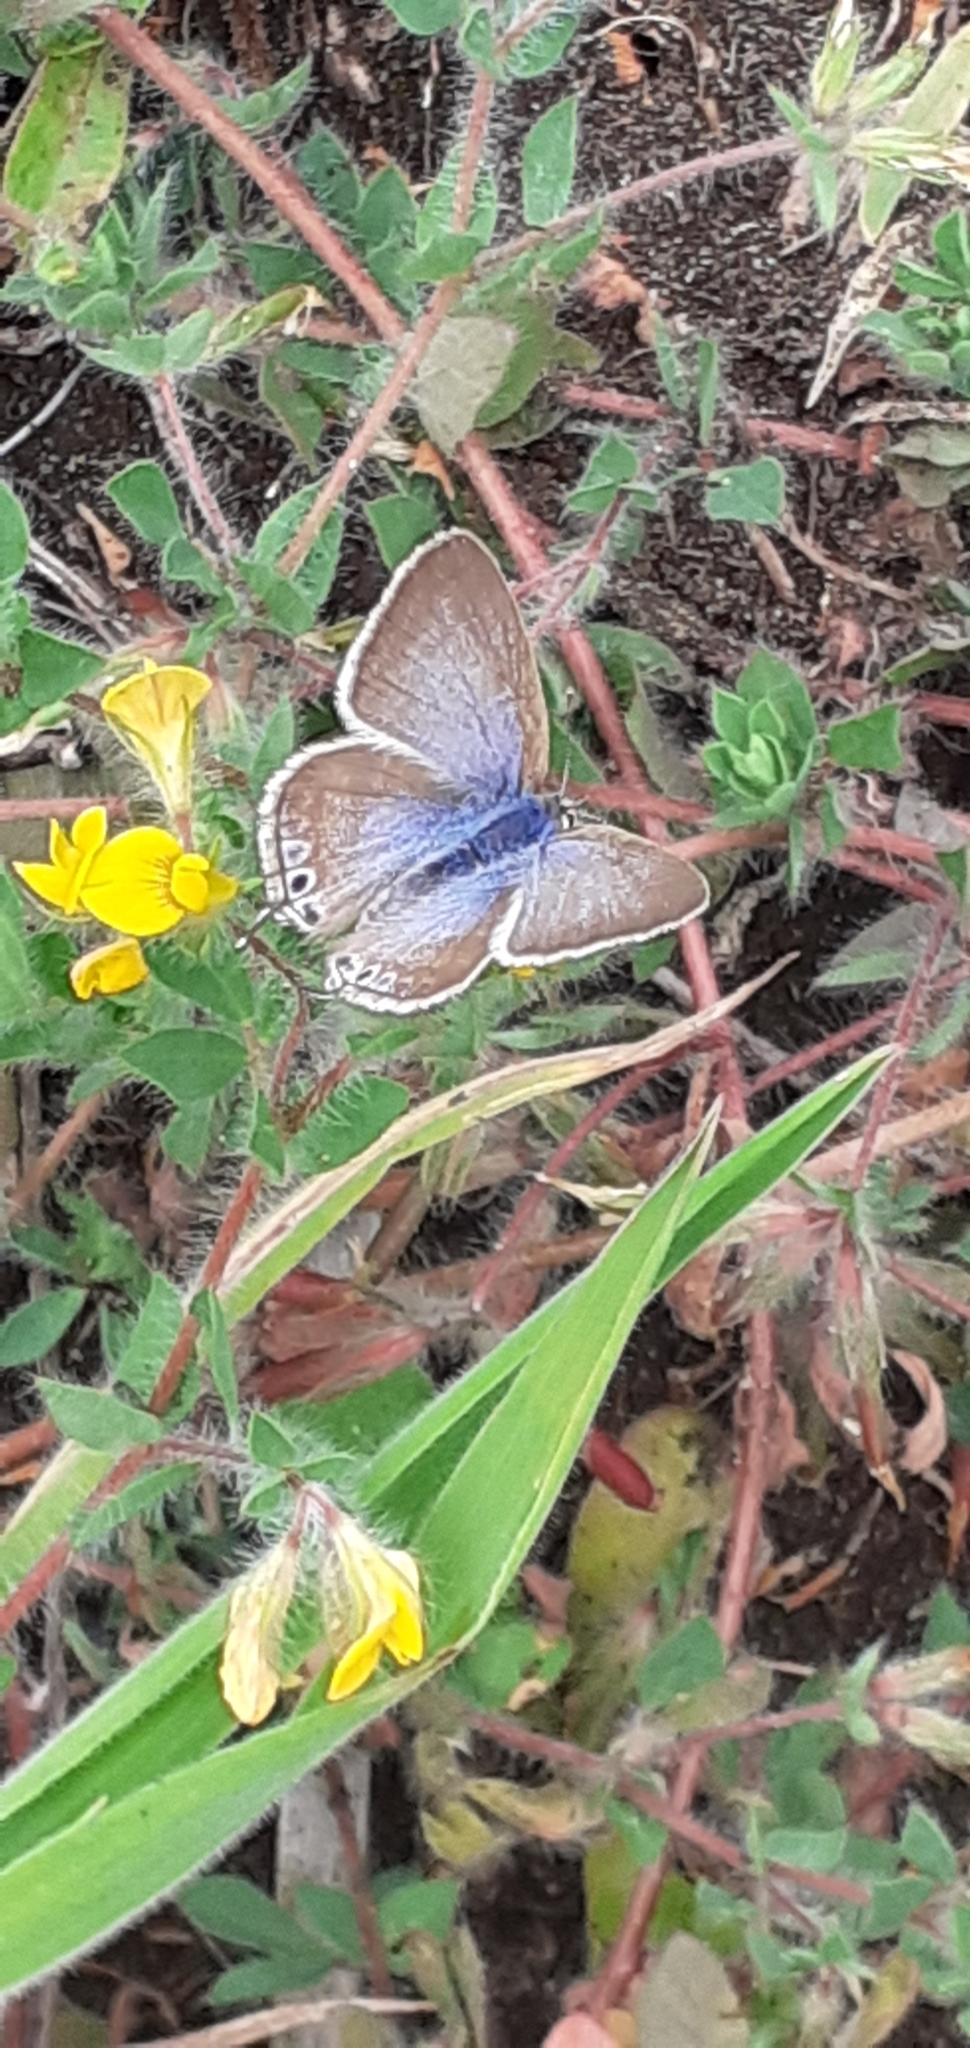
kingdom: Animalia
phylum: Arthropoda
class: Insecta
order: Lepidoptera
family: Lycaenidae
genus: Lampides
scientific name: Lampides boeticus
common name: Long-tailed blue
